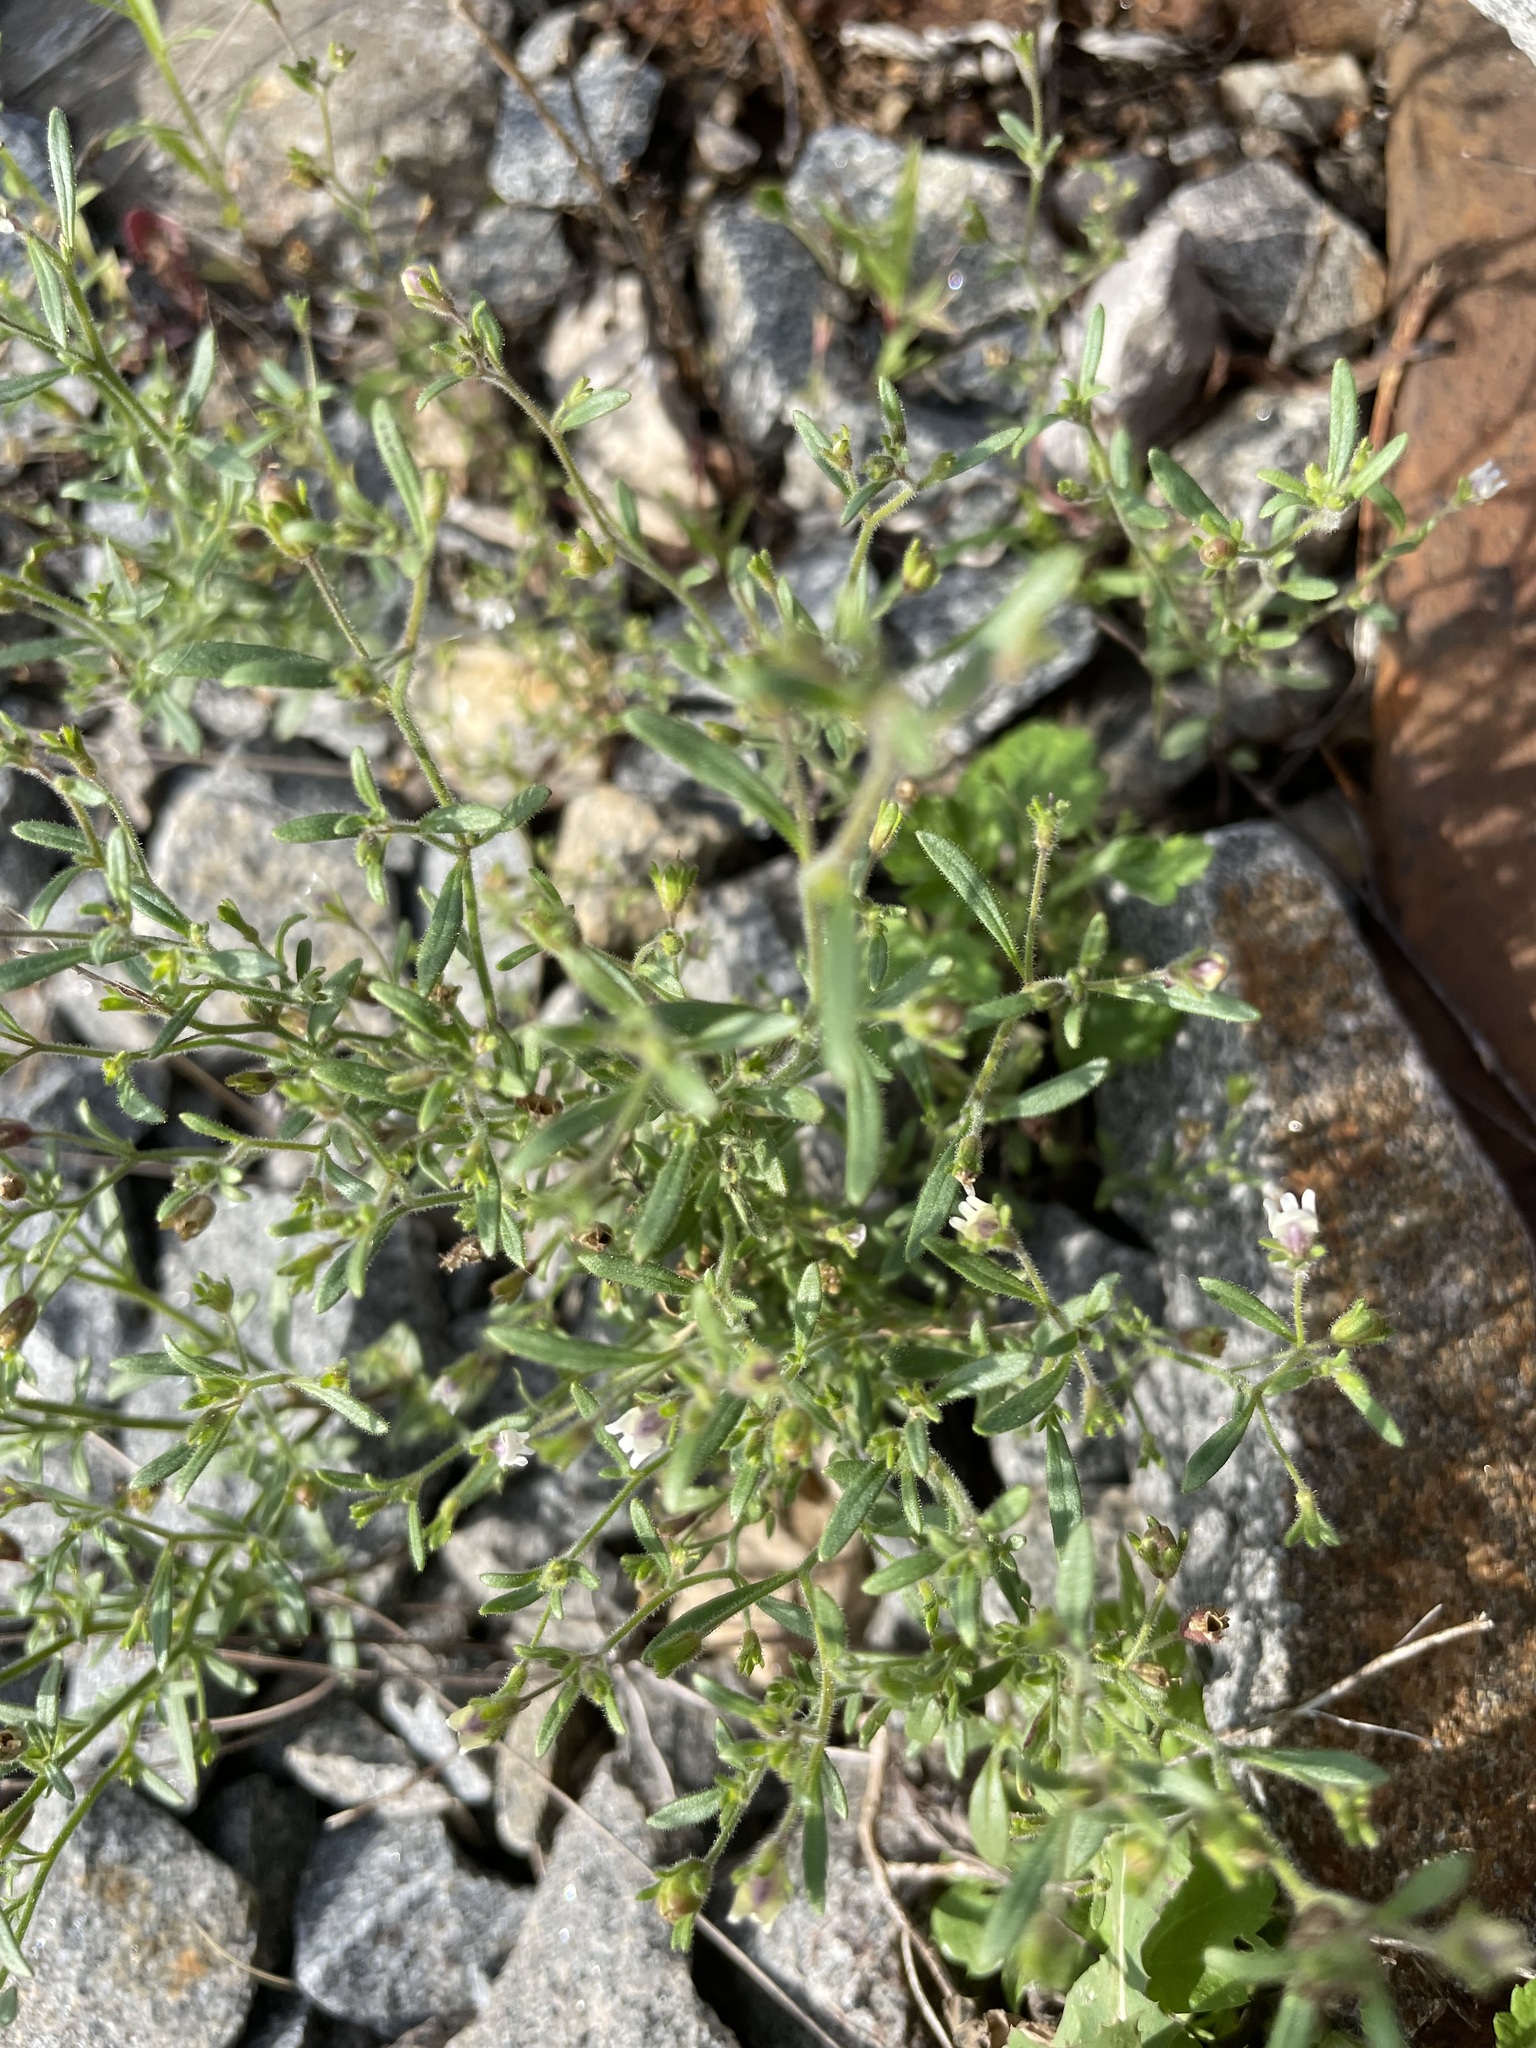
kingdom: Plantae
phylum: Tracheophyta
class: Magnoliopsida
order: Lamiales
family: Plantaginaceae
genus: Chaenorhinum
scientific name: Chaenorhinum minus
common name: Dwarf snapdragon
